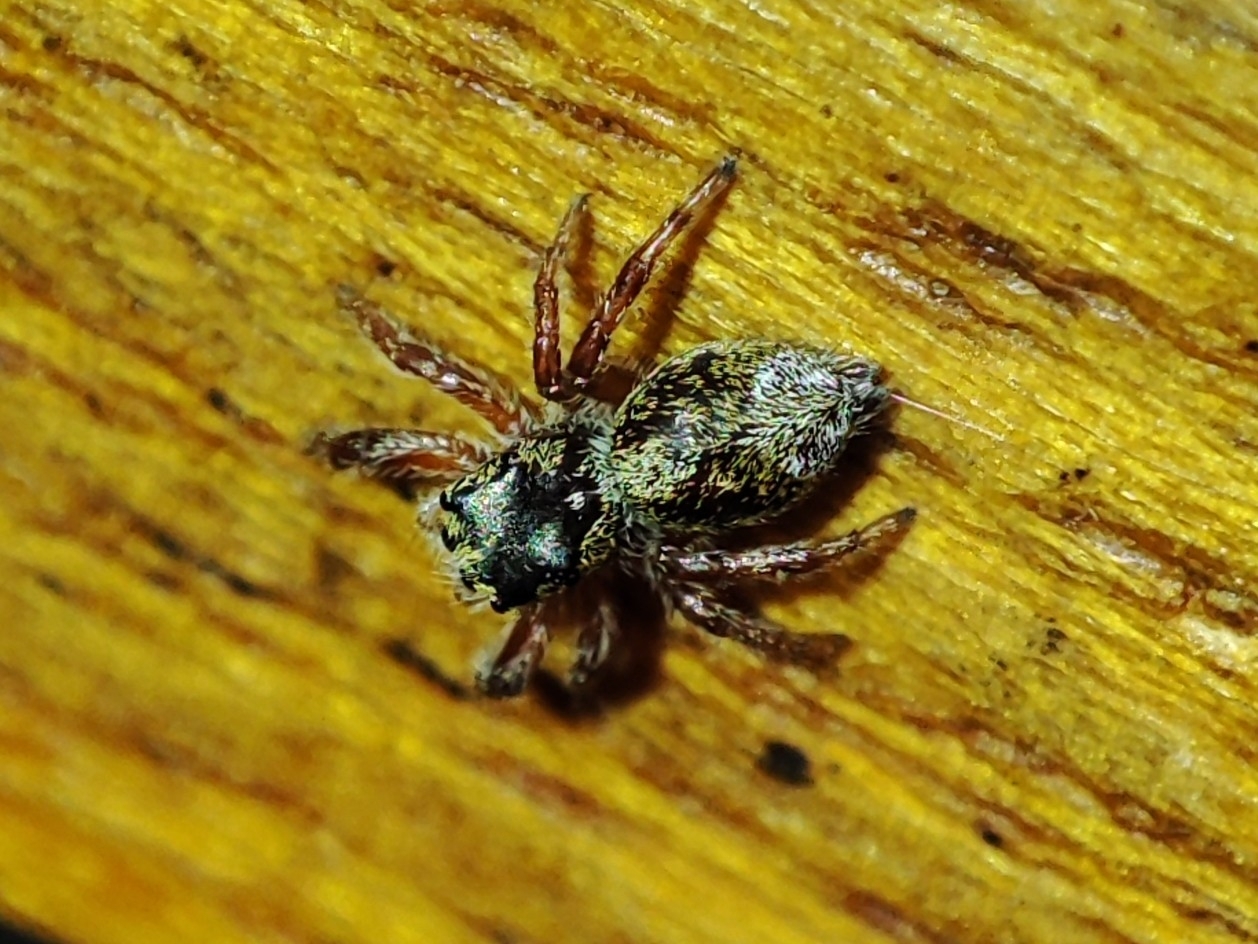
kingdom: Animalia
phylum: Arthropoda
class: Arachnida
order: Araneae
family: Salticidae
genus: Dendryphantes
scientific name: Dendryphantes rudis
